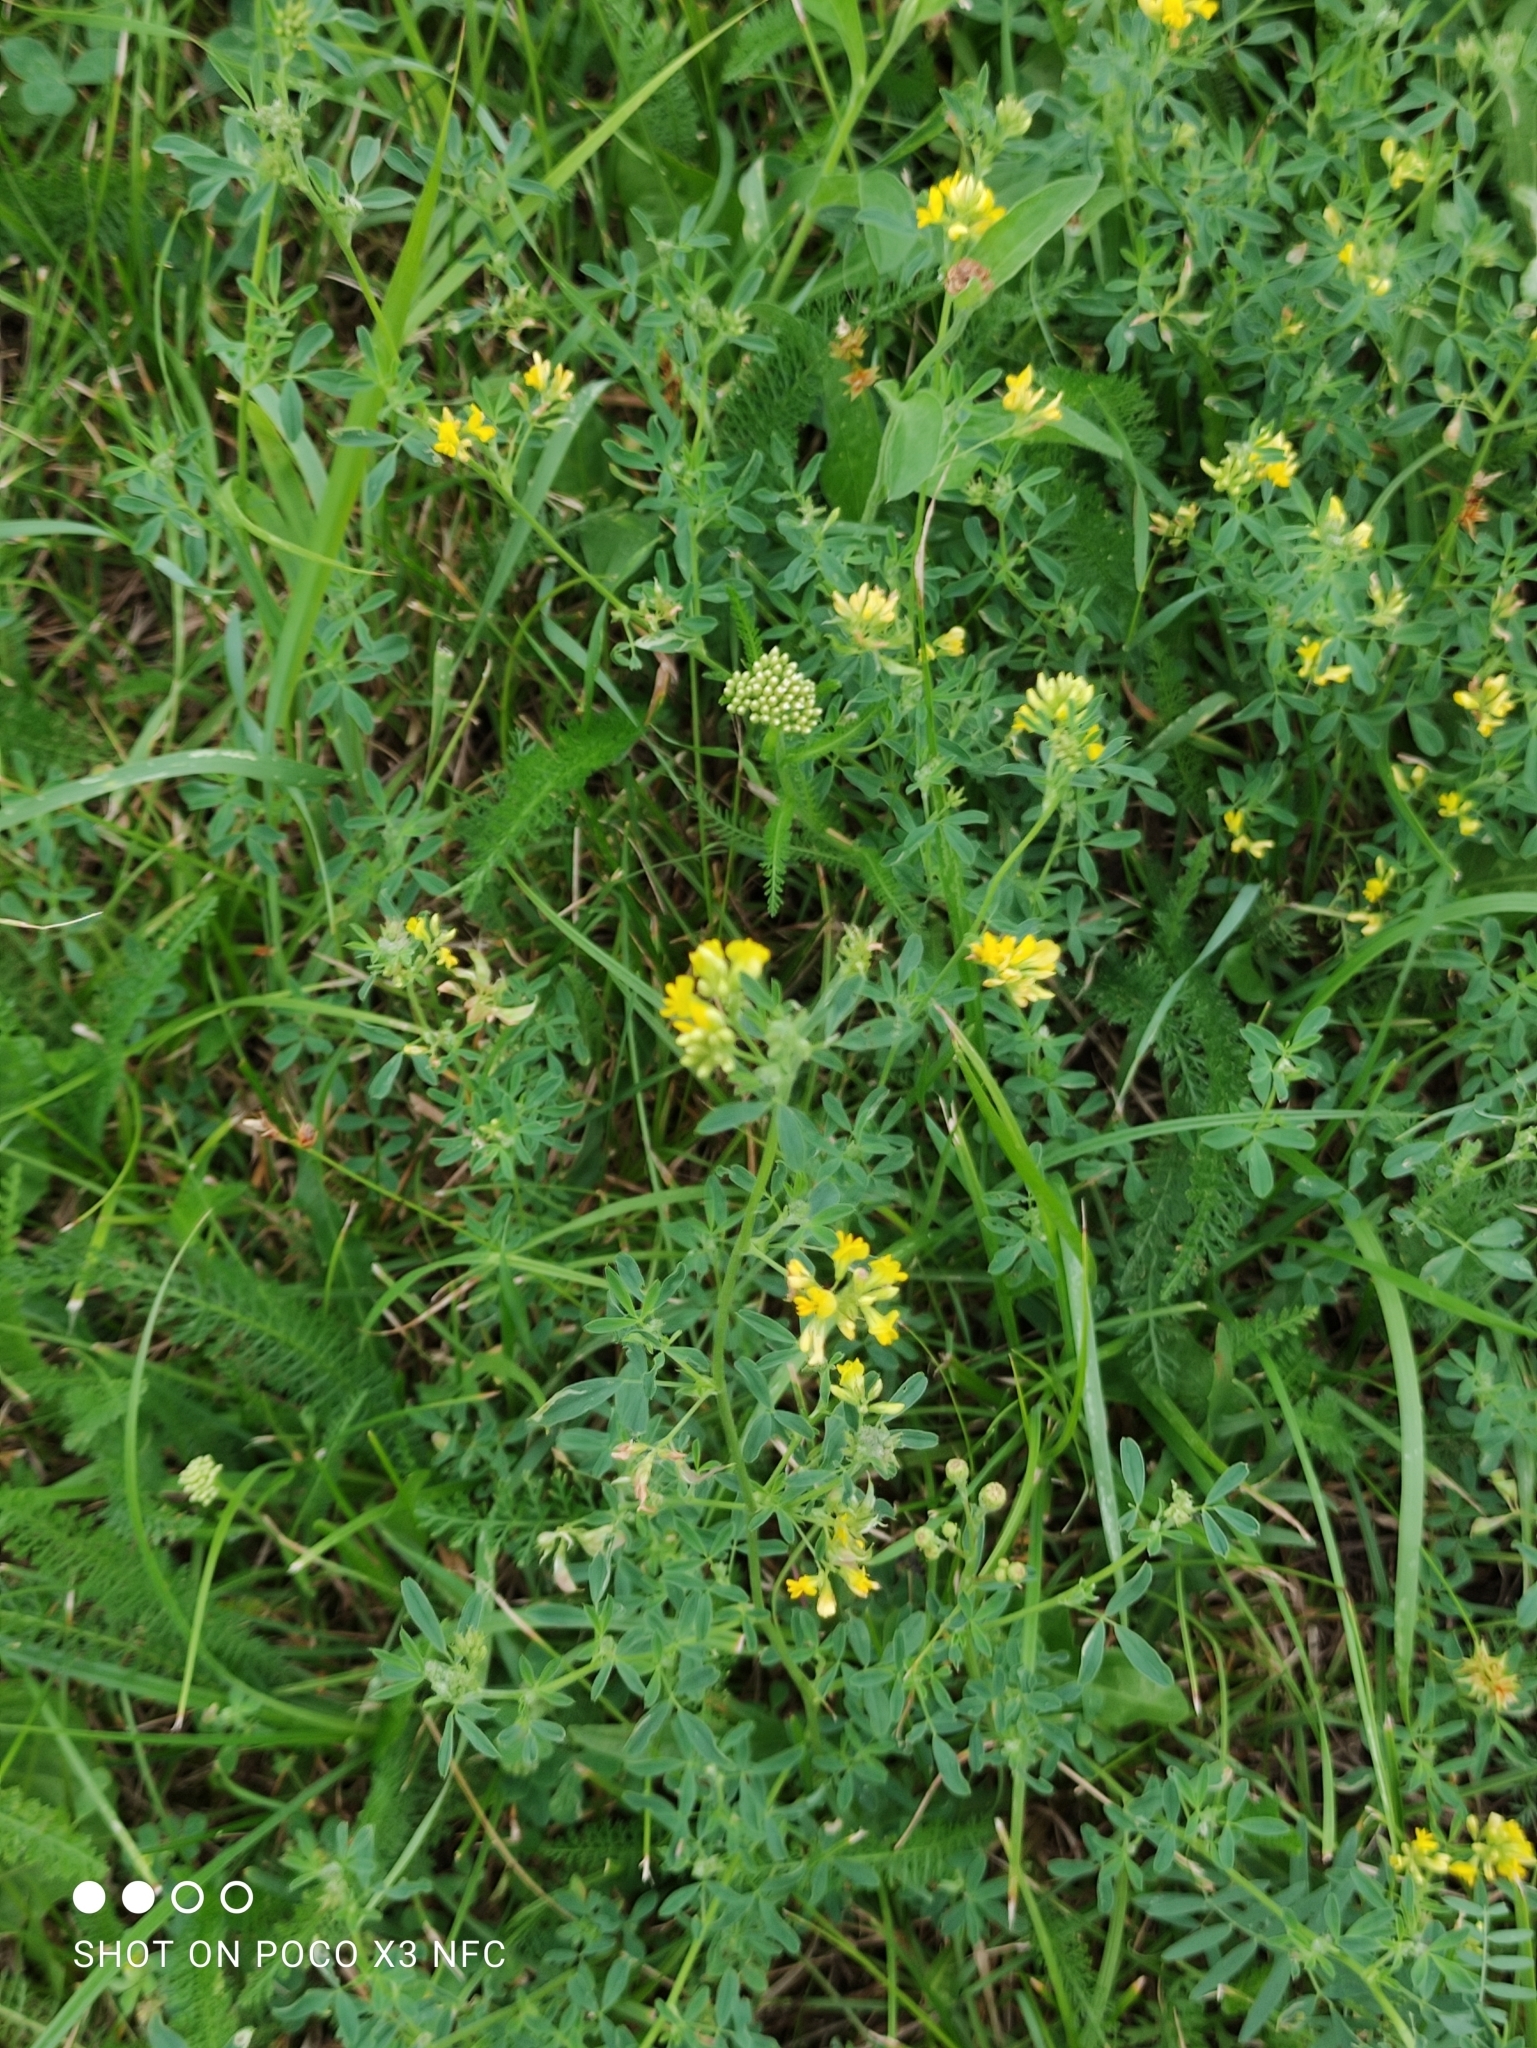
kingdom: Plantae
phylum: Tracheophyta
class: Magnoliopsida
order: Fabales
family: Fabaceae
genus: Medicago
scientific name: Medicago falcata
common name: Sickle medick
